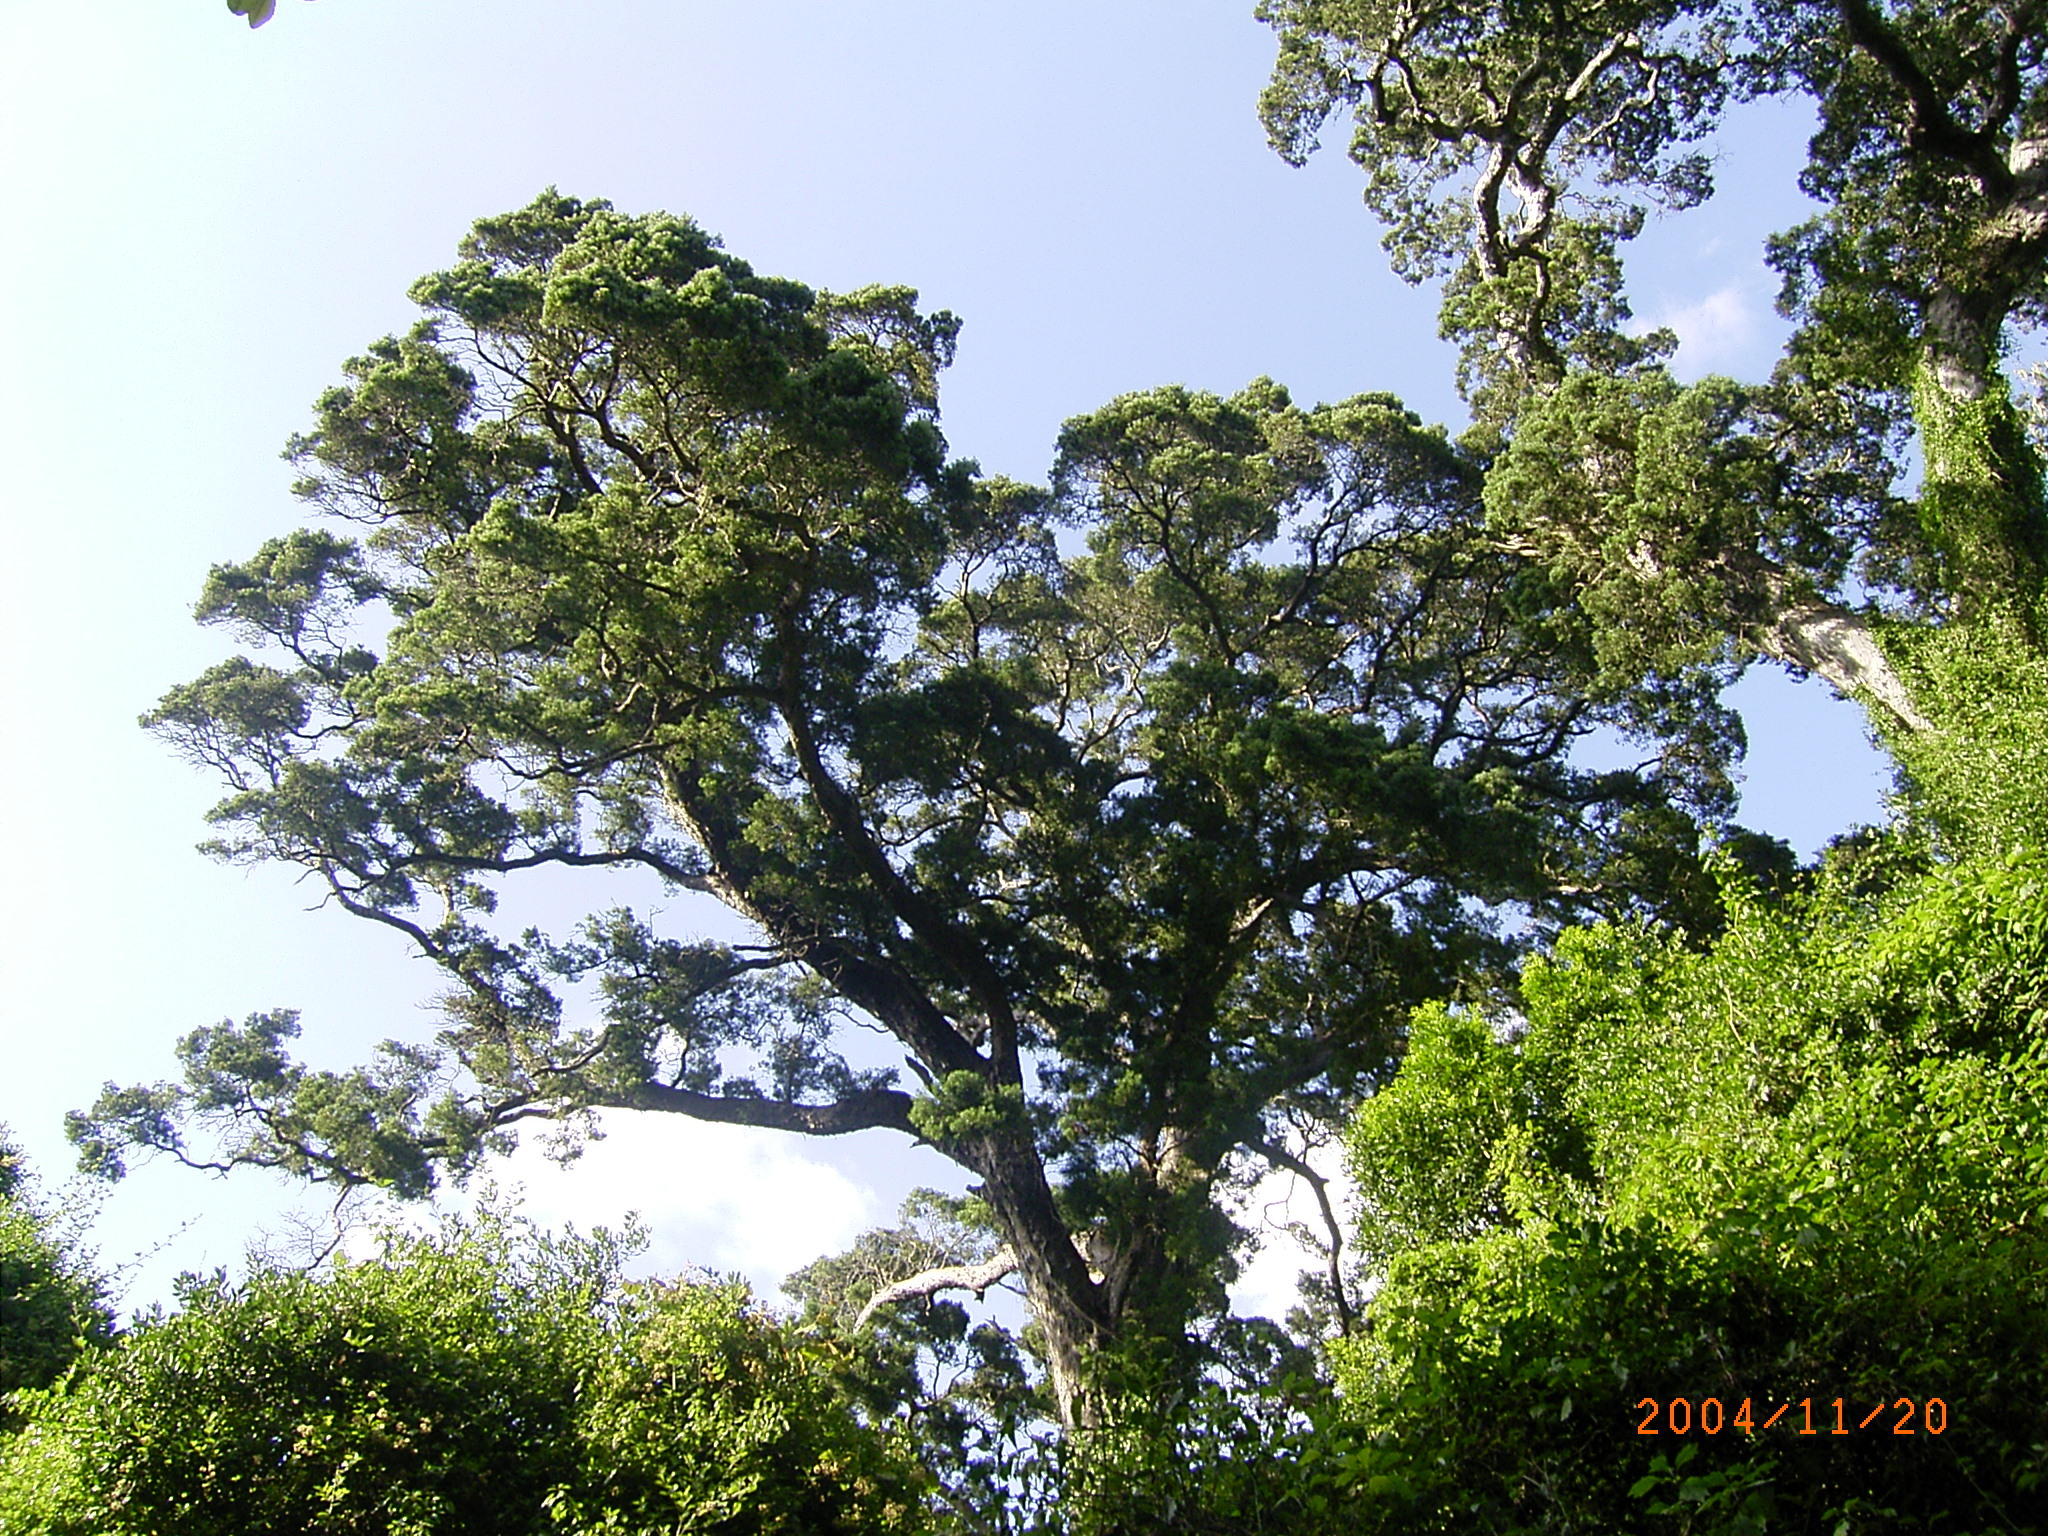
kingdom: Plantae
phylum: Tracheophyta
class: Pinopsida
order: Pinales
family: Podocarpaceae
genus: Afrocarpus
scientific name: Afrocarpus falcatus
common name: Bastard yellowwood
